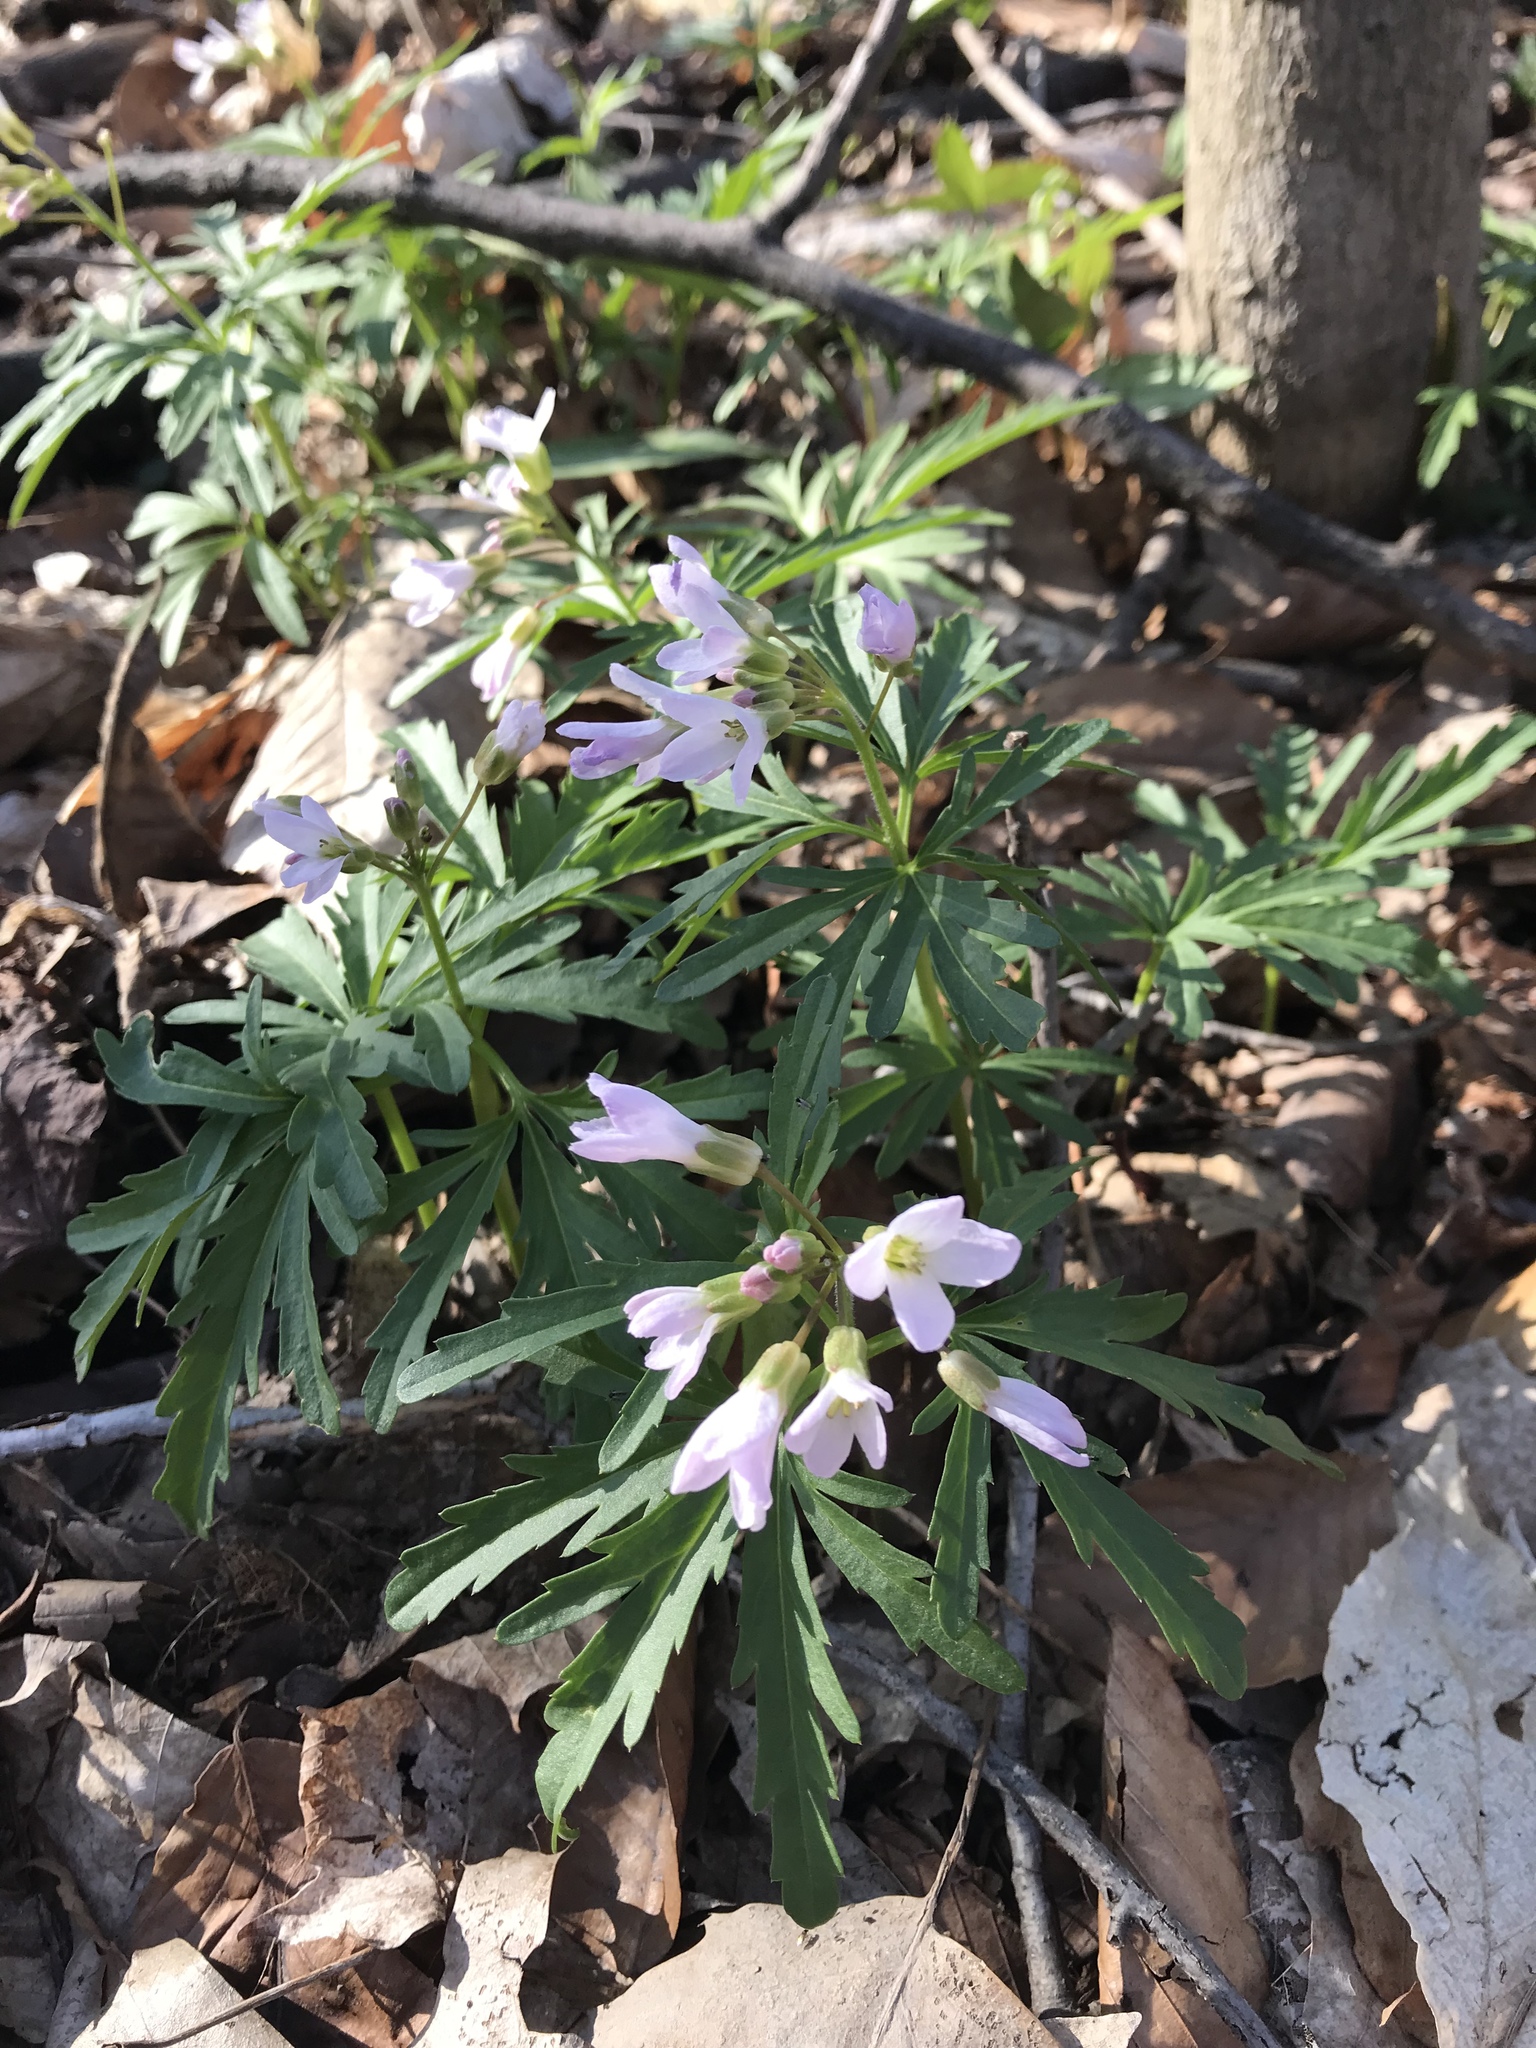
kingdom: Plantae
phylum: Tracheophyta
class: Magnoliopsida
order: Brassicales
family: Brassicaceae
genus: Cardamine
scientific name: Cardamine concatenata
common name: Cut-leaf toothcup
